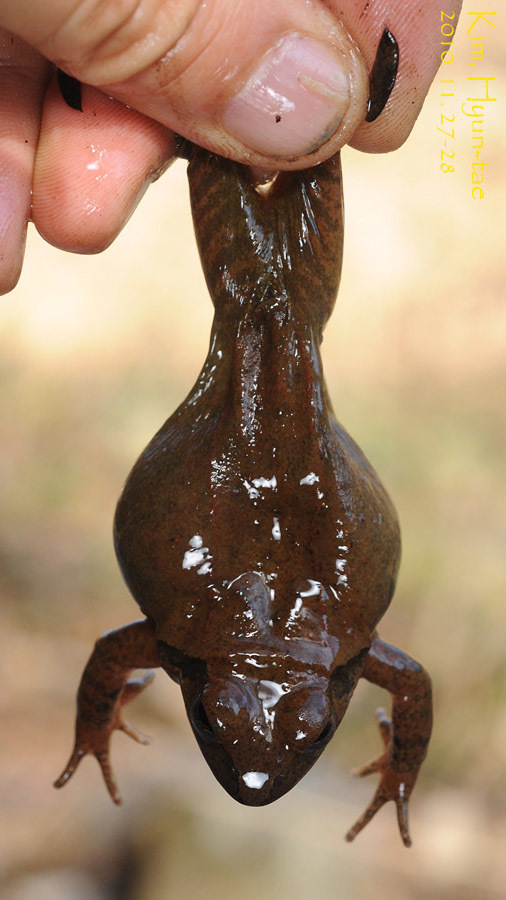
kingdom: Animalia
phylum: Chordata
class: Amphibia
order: Anura
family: Ranidae
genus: Rana
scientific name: Rana uenoi
